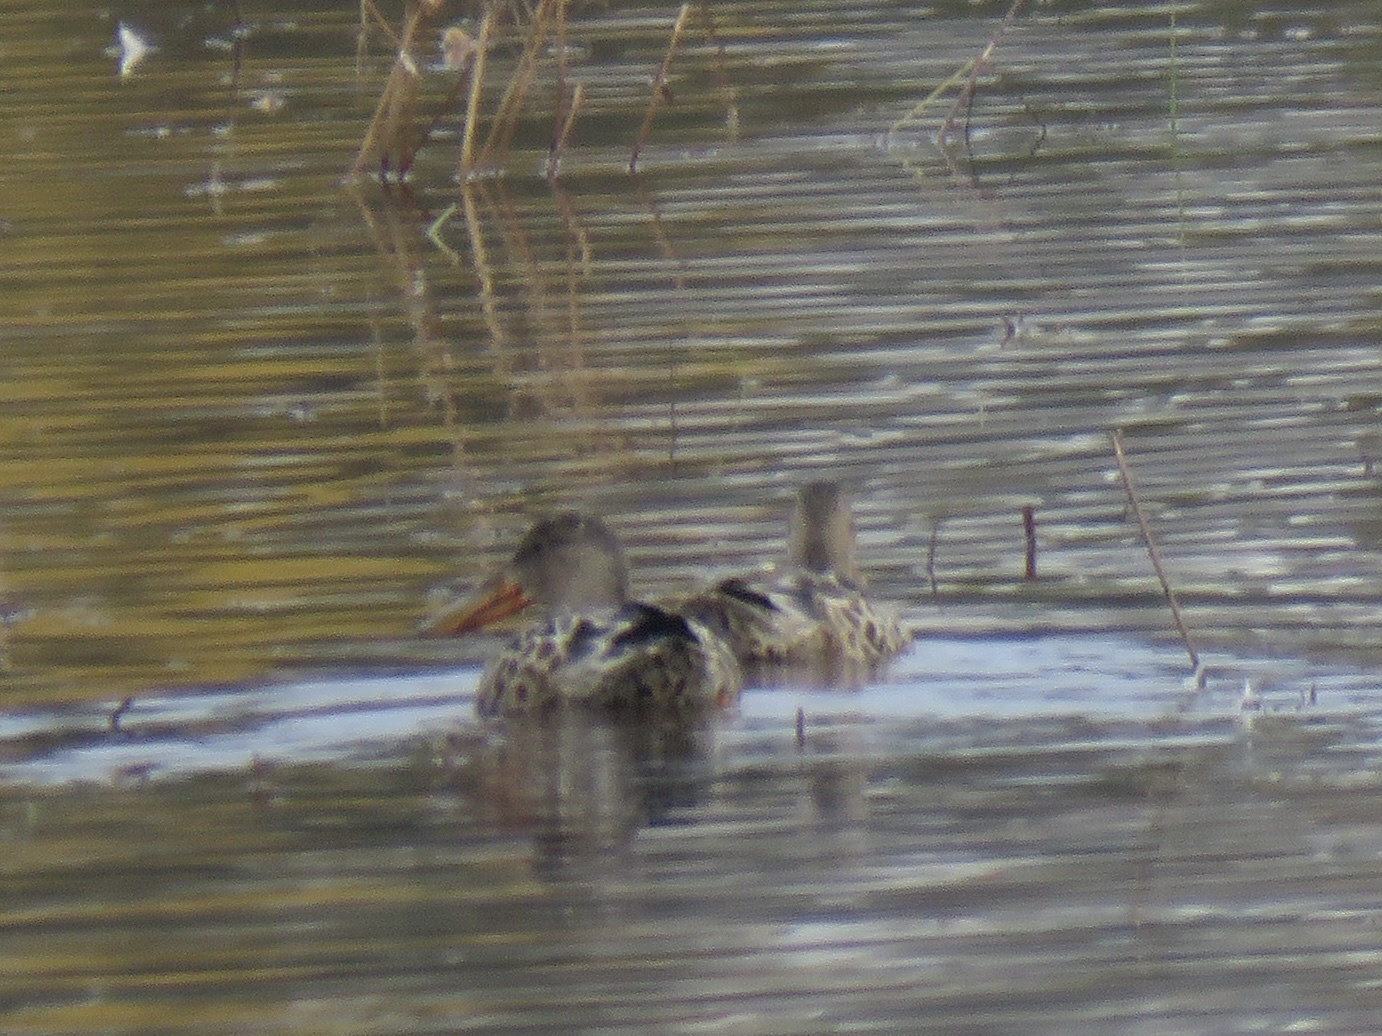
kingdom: Animalia
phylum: Chordata
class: Aves
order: Anseriformes
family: Anatidae
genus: Spatula
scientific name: Spatula clypeata
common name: Northern shoveler
